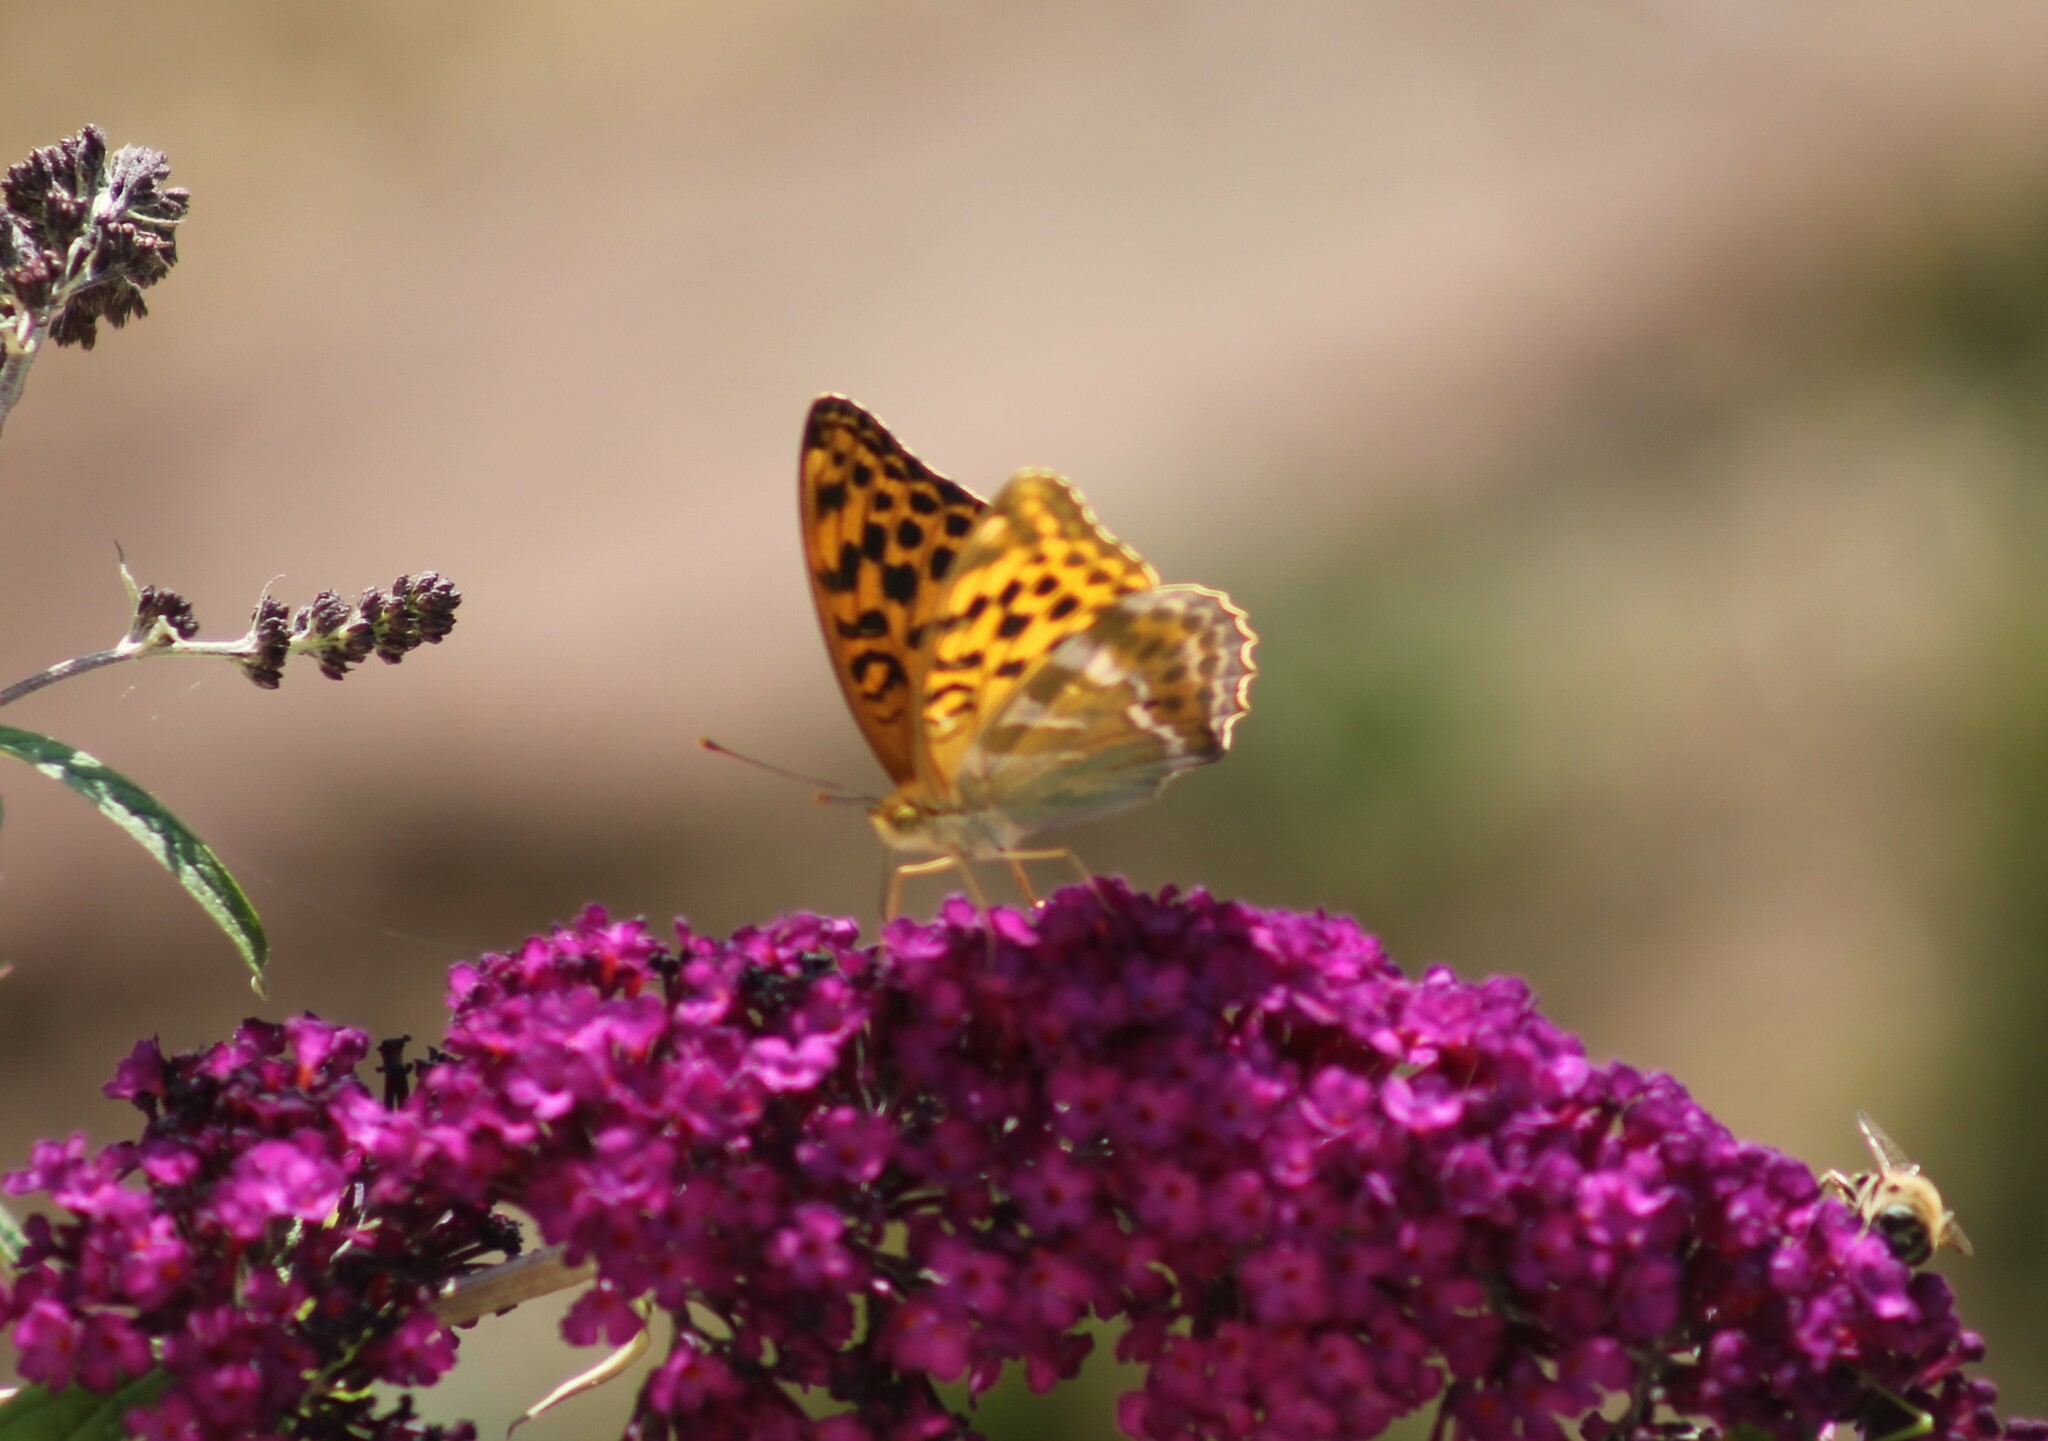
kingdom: Animalia
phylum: Arthropoda
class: Insecta
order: Lepidoptera
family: Nymphalidae
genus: Argynnis
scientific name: Argynnis paphia
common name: Silver-washed fritillary
